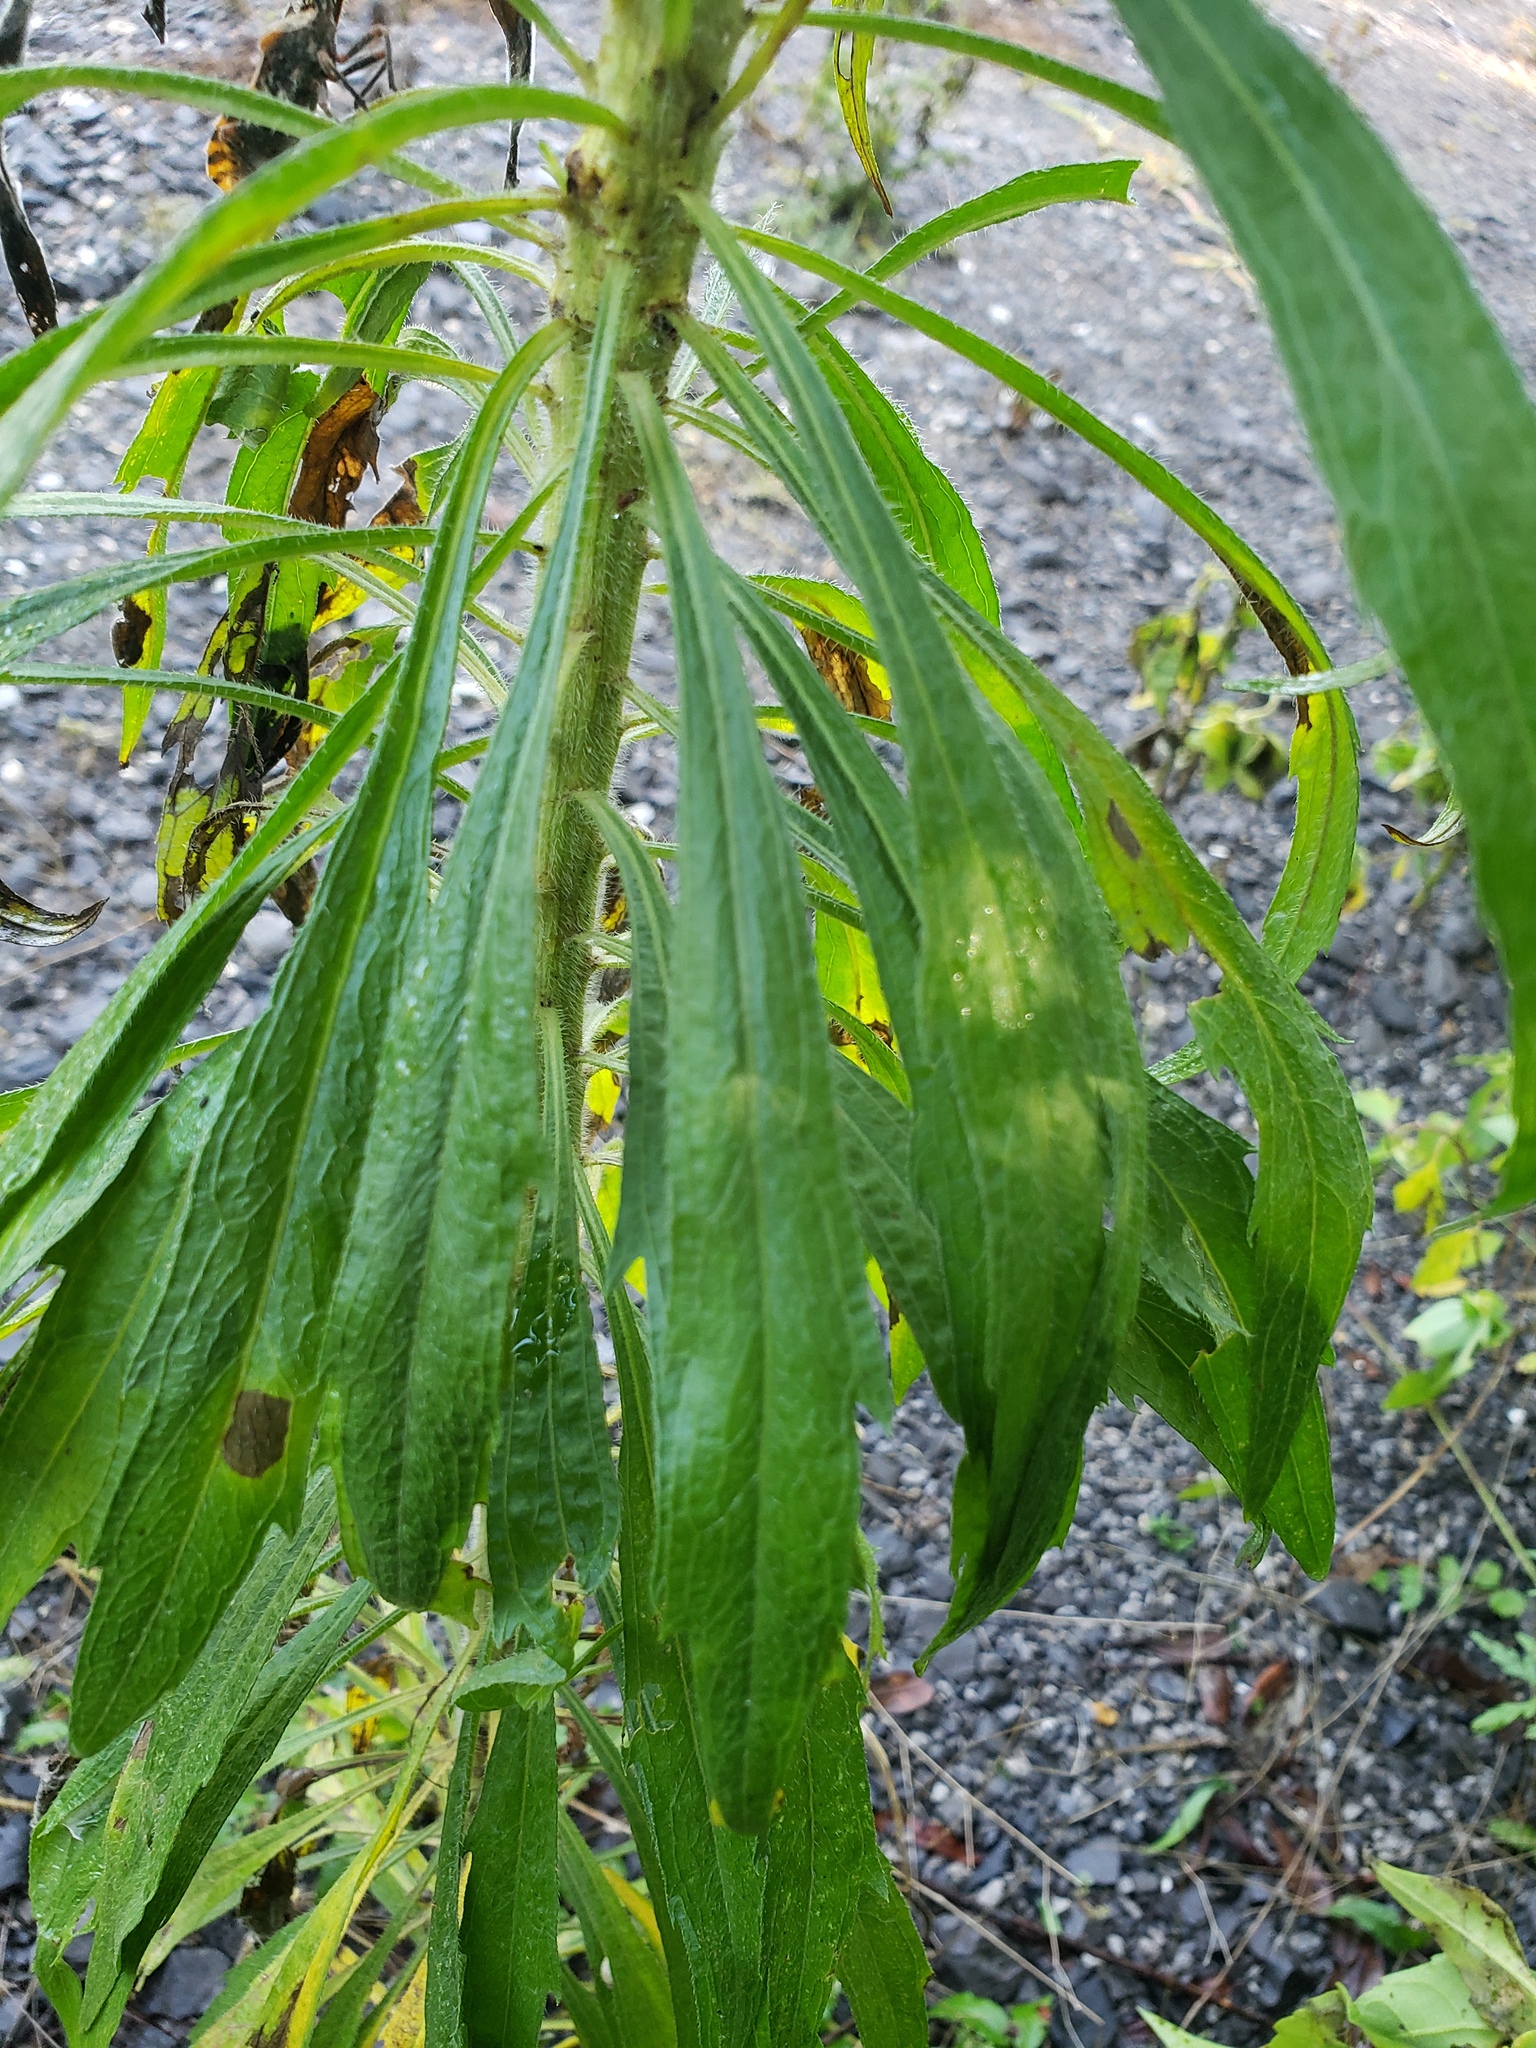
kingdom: Plantae
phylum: Tracheophyta
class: Magnoliopsida
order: Asterales
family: Asteraceae
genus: Erigeron
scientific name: Erigeron canadensis
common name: Canadian fleabane
